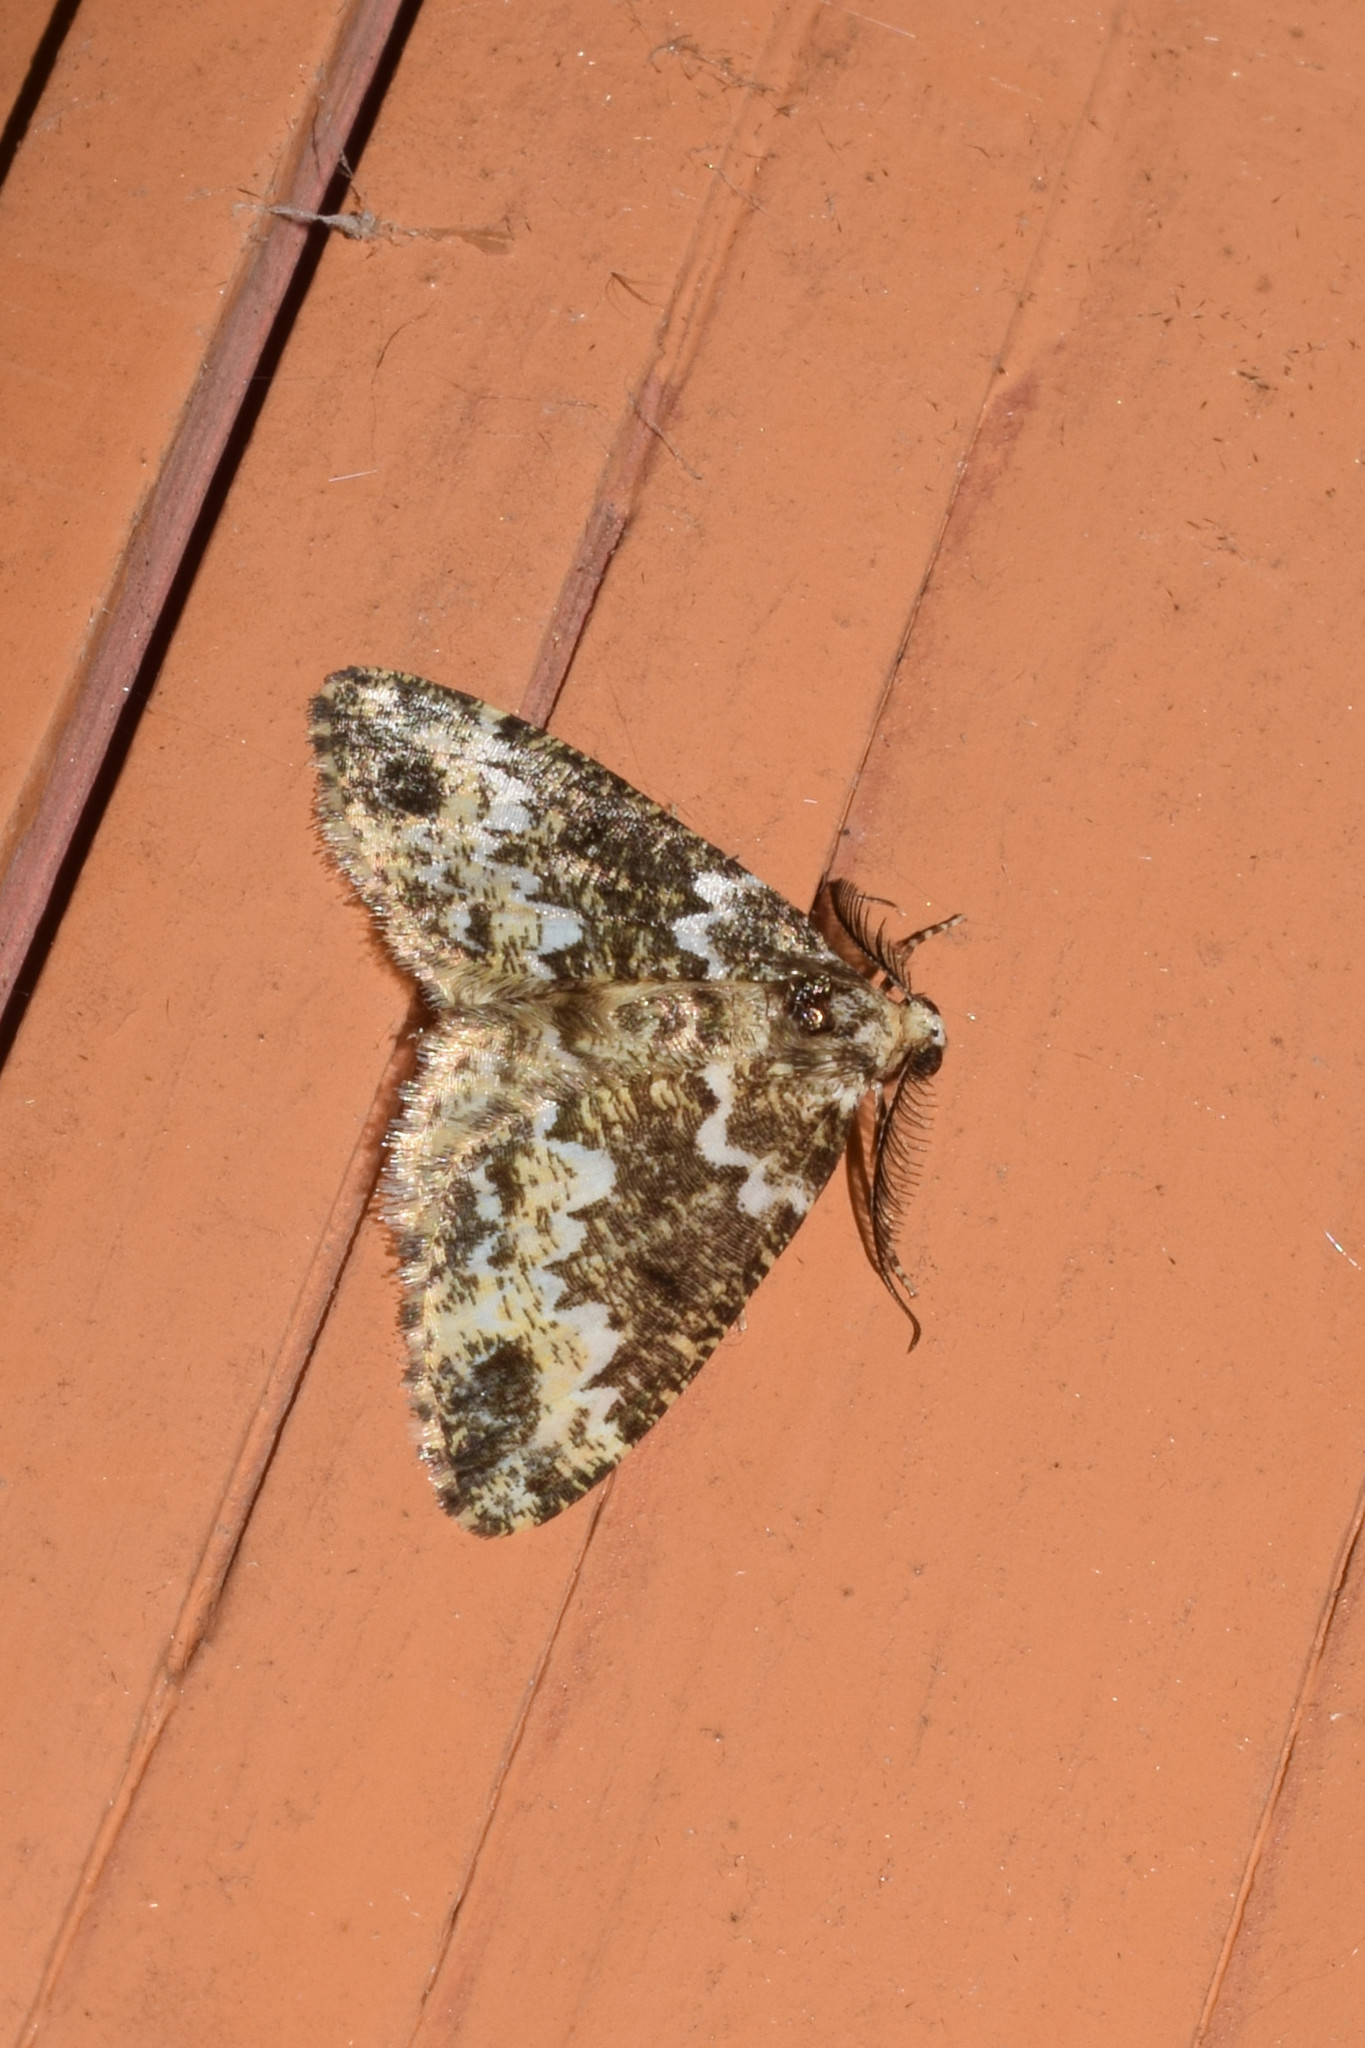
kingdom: Animalia
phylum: Arthropoda
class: Insecta
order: Lepidoptera
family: Geometridae
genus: Prochasma
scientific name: Prochasma dentilinea
